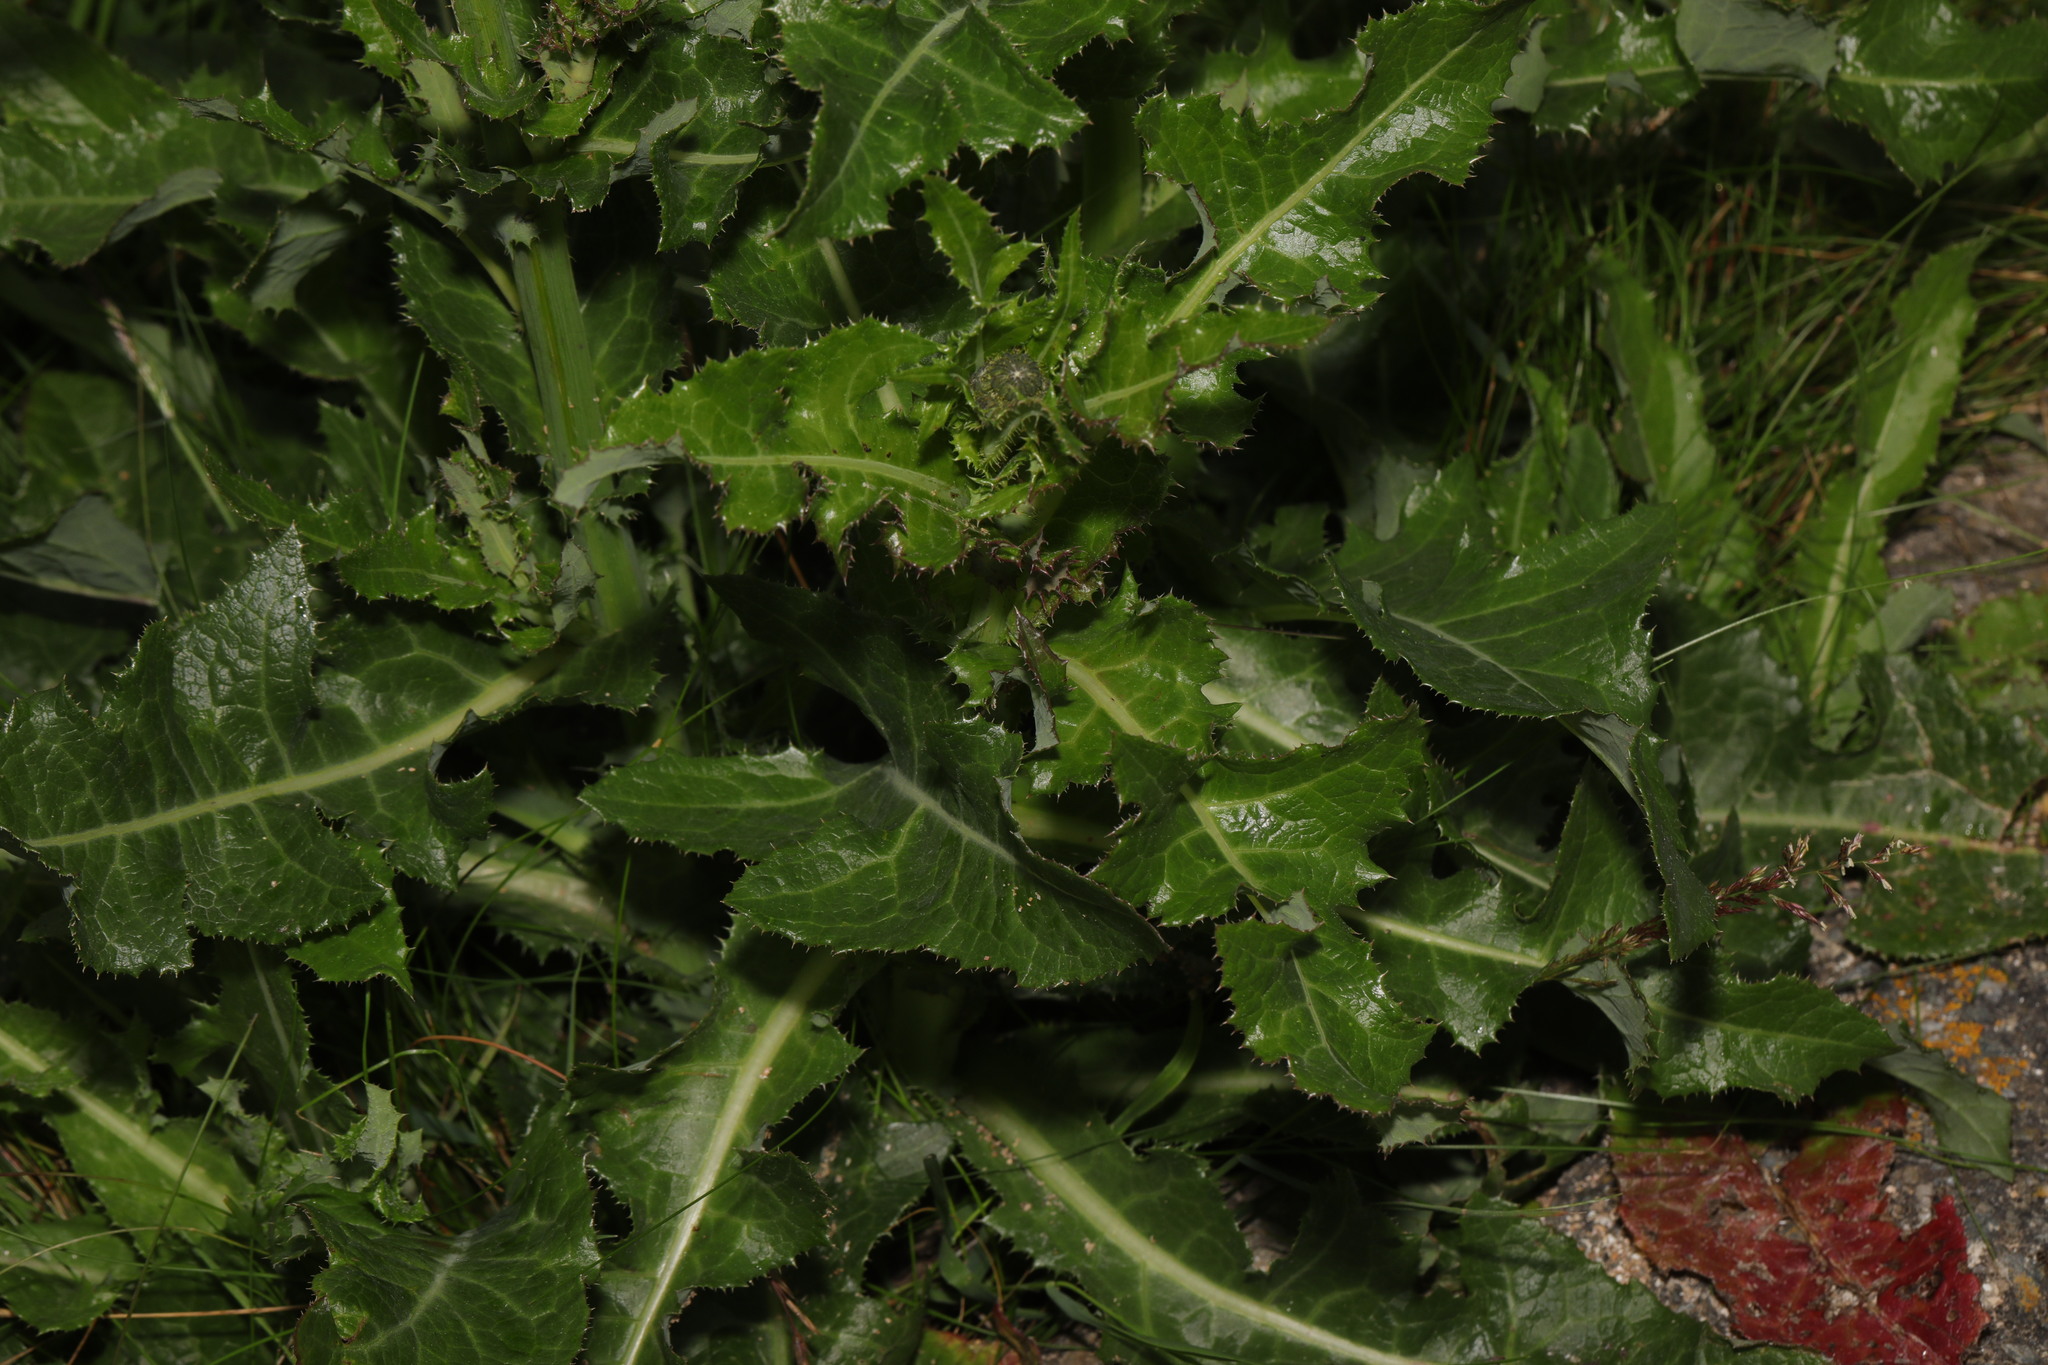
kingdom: Plantae
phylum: Tracheophyta
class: Magnoliopsida
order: Asterales
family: Asteraceae
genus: Sonchus
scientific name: Sonchus arvensis
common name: Perennial sow-thistle
